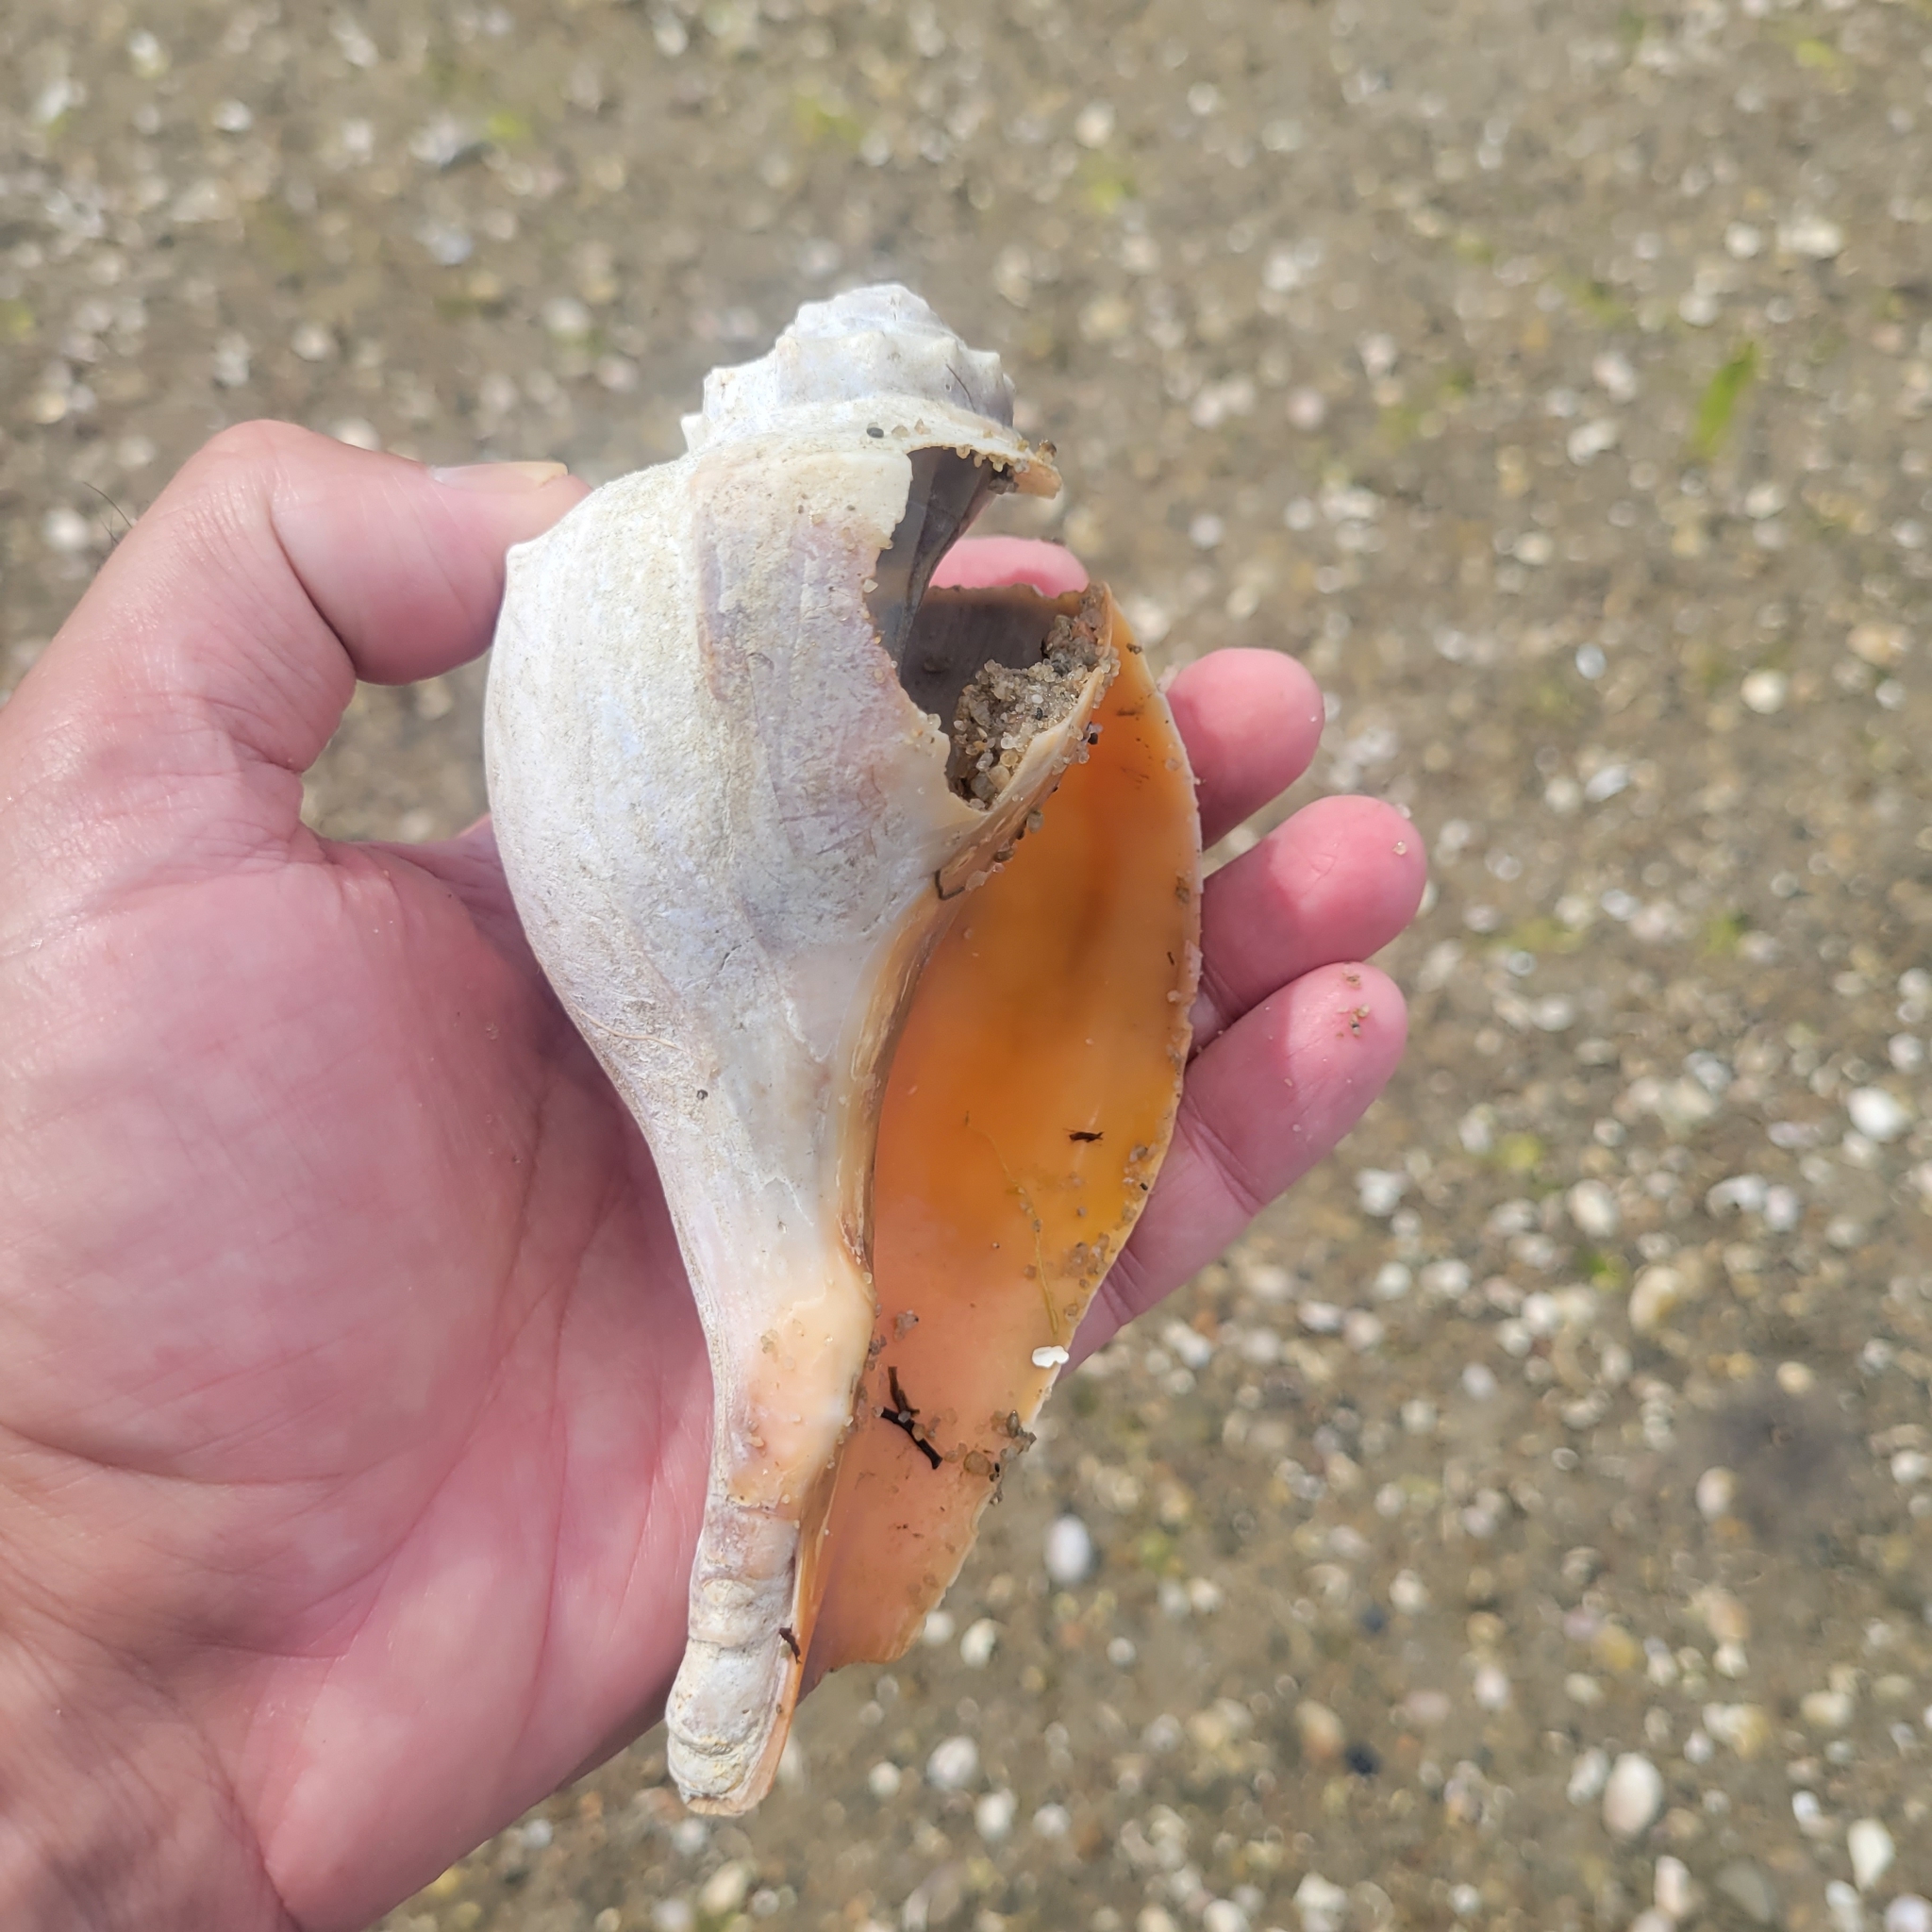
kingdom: Animalia
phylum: Mollusca
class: Gastropoda
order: Neogastropoda
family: Busyconidae
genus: Busycon
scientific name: Busycon carica
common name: Knobbed whelk
